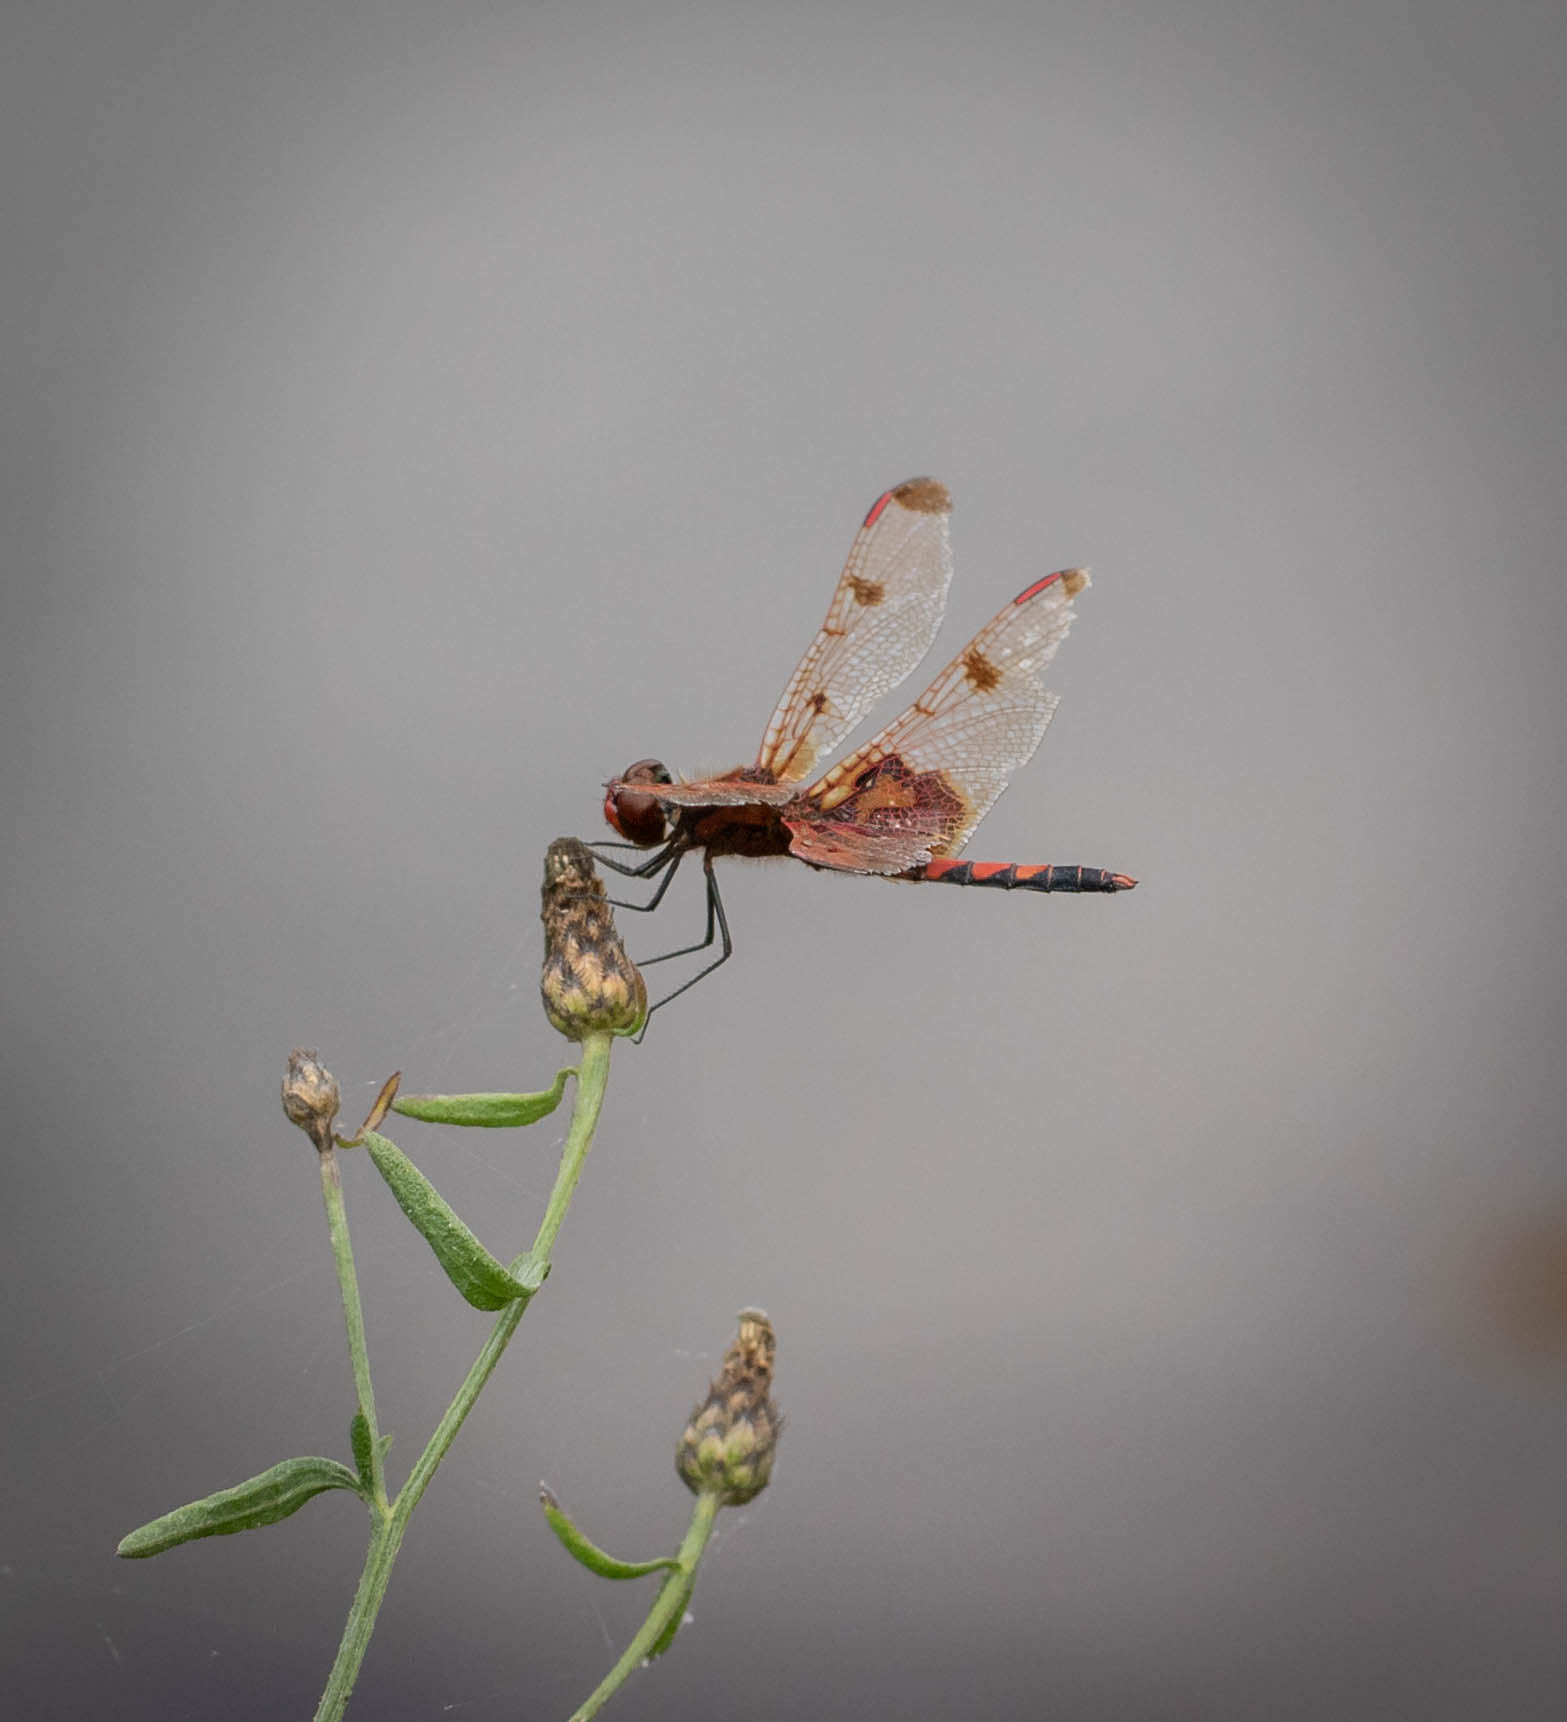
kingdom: Animalia
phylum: Arthropoda
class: Insecta
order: Odonata
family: Libellulidae
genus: Celithemis
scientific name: Celithemis elisa
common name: Calico pennant
